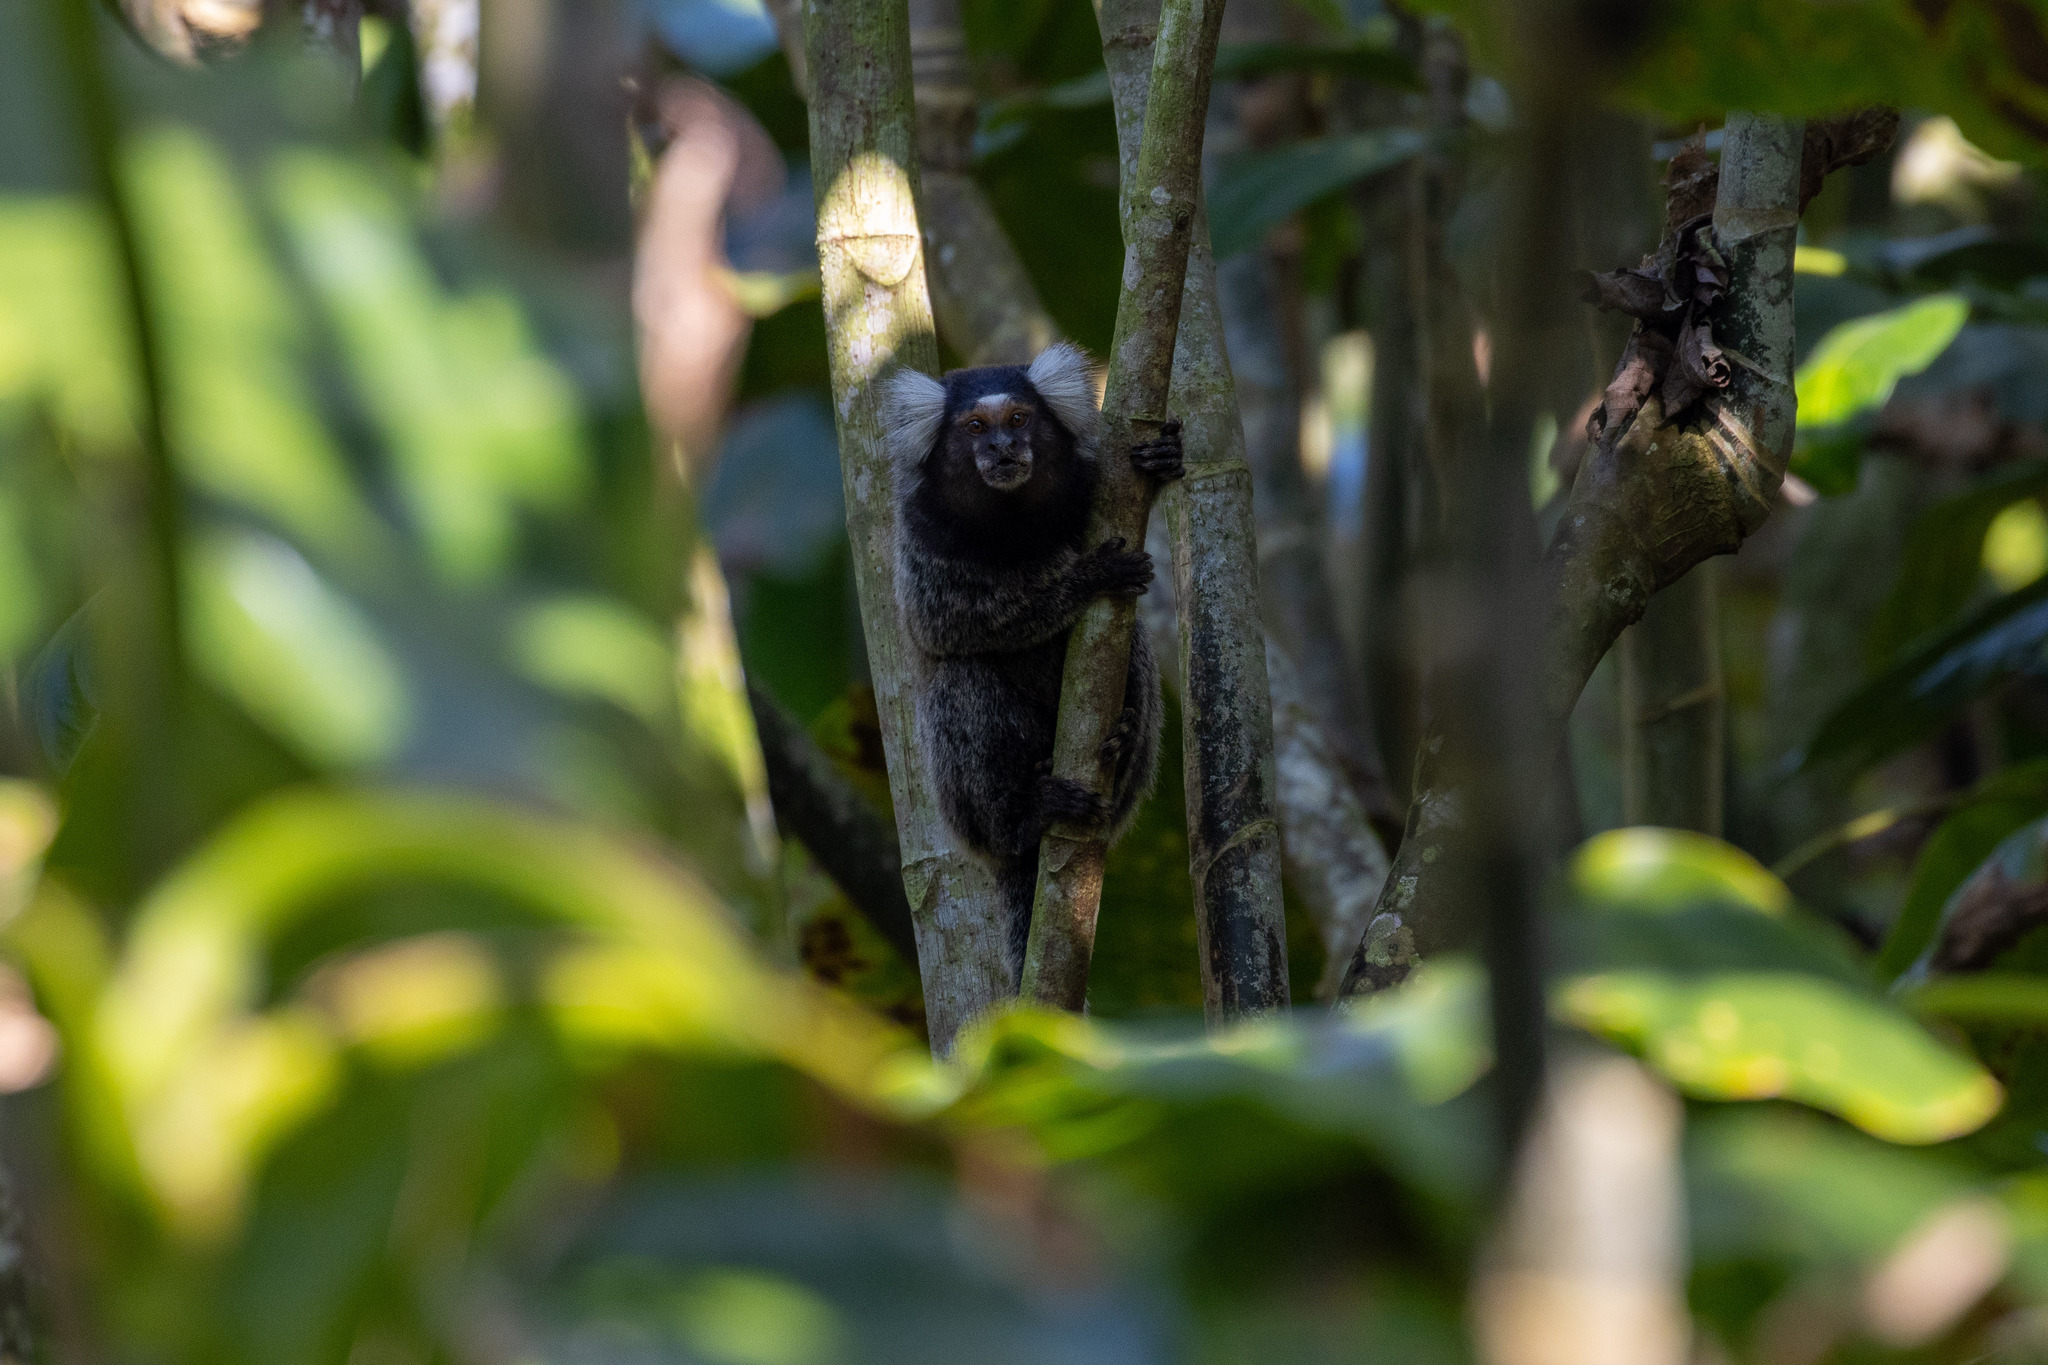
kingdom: Animalia
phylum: Chordata
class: Mammalia
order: Primates
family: Callitrichidae
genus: Callithrix
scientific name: Callithrix jacchus
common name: Common marmoset
